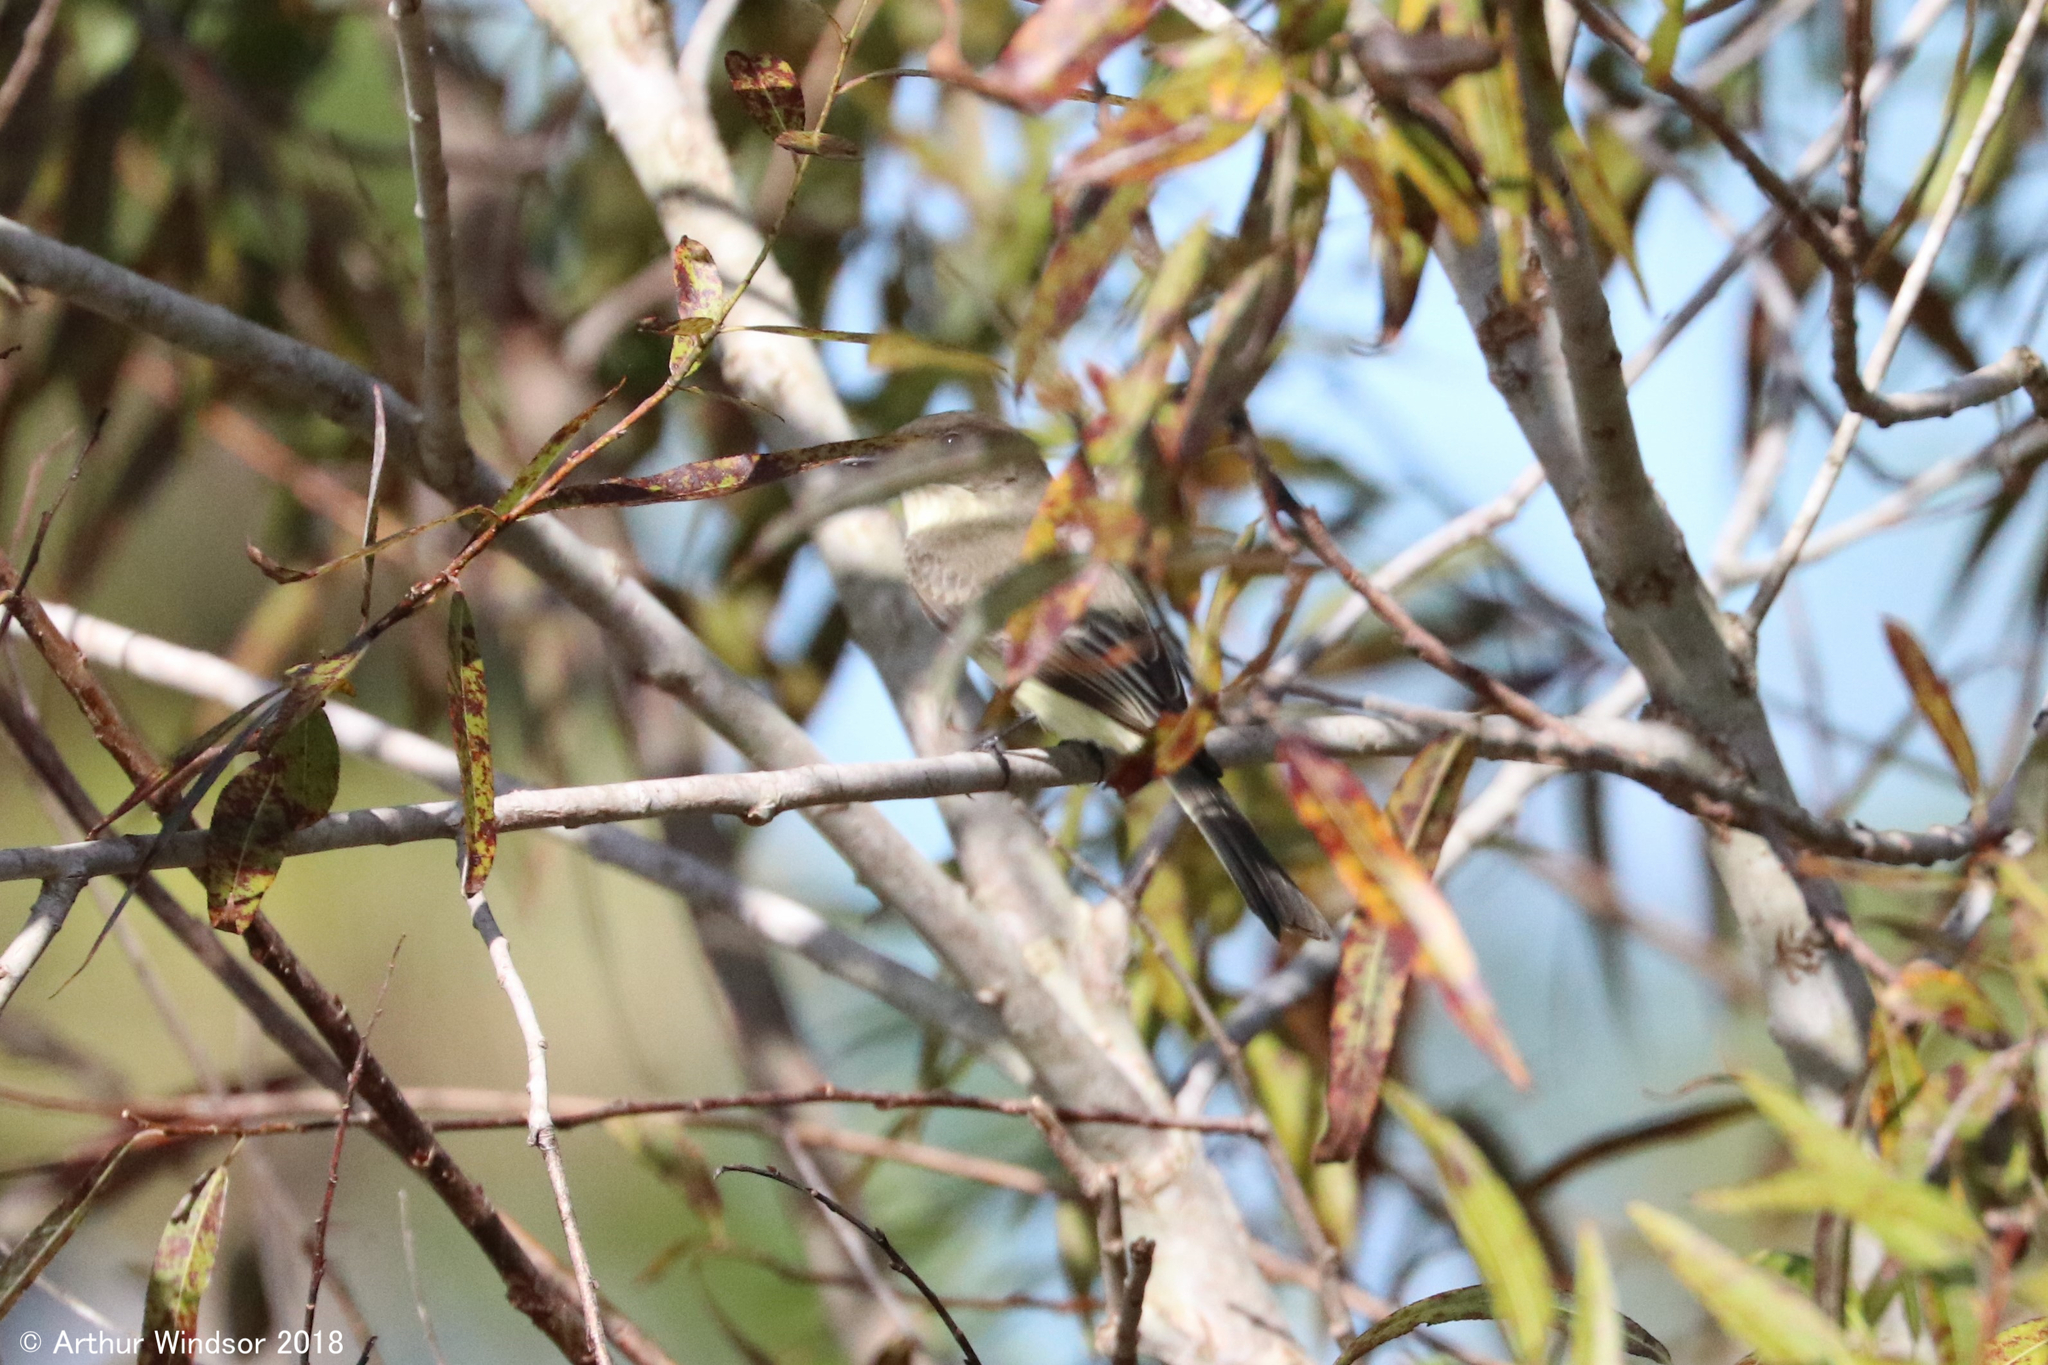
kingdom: Animalia
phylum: Chordata
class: Aves
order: Passeriformes
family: Tyrannidae
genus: Sayornis
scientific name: Sayornis phoebe
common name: Eastern phoebe
